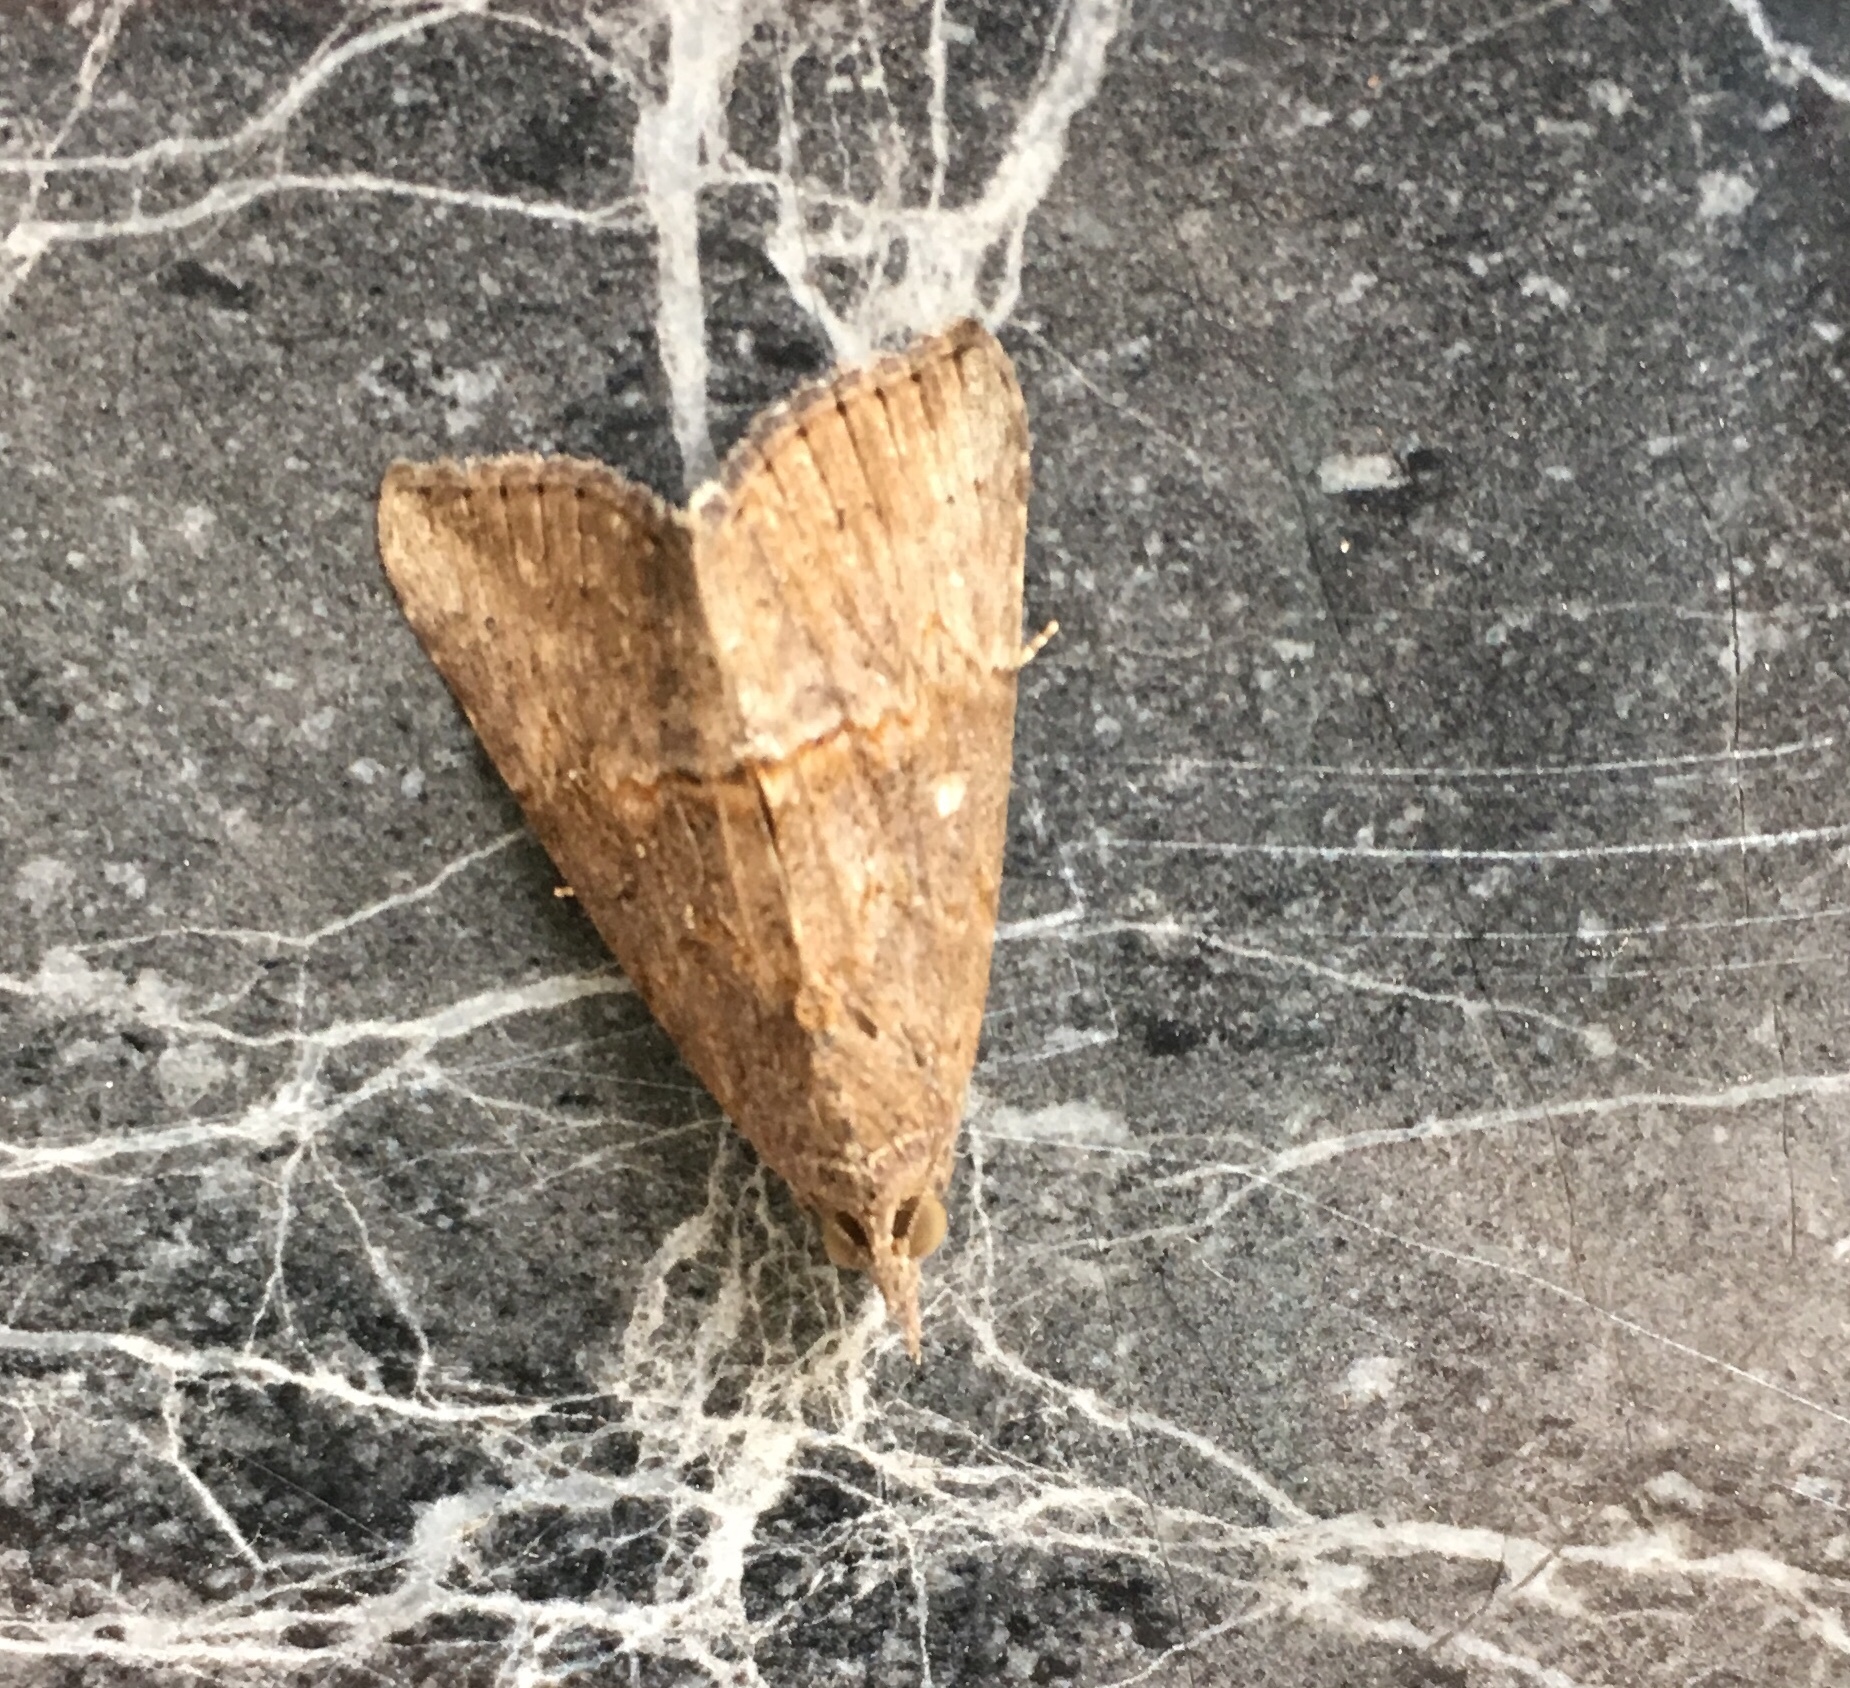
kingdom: Animalia
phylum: Arthropoda
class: Insecta
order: Lepidoptera
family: Erebidae
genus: Hypena
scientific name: Hypena scabra
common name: Green cloverworm
